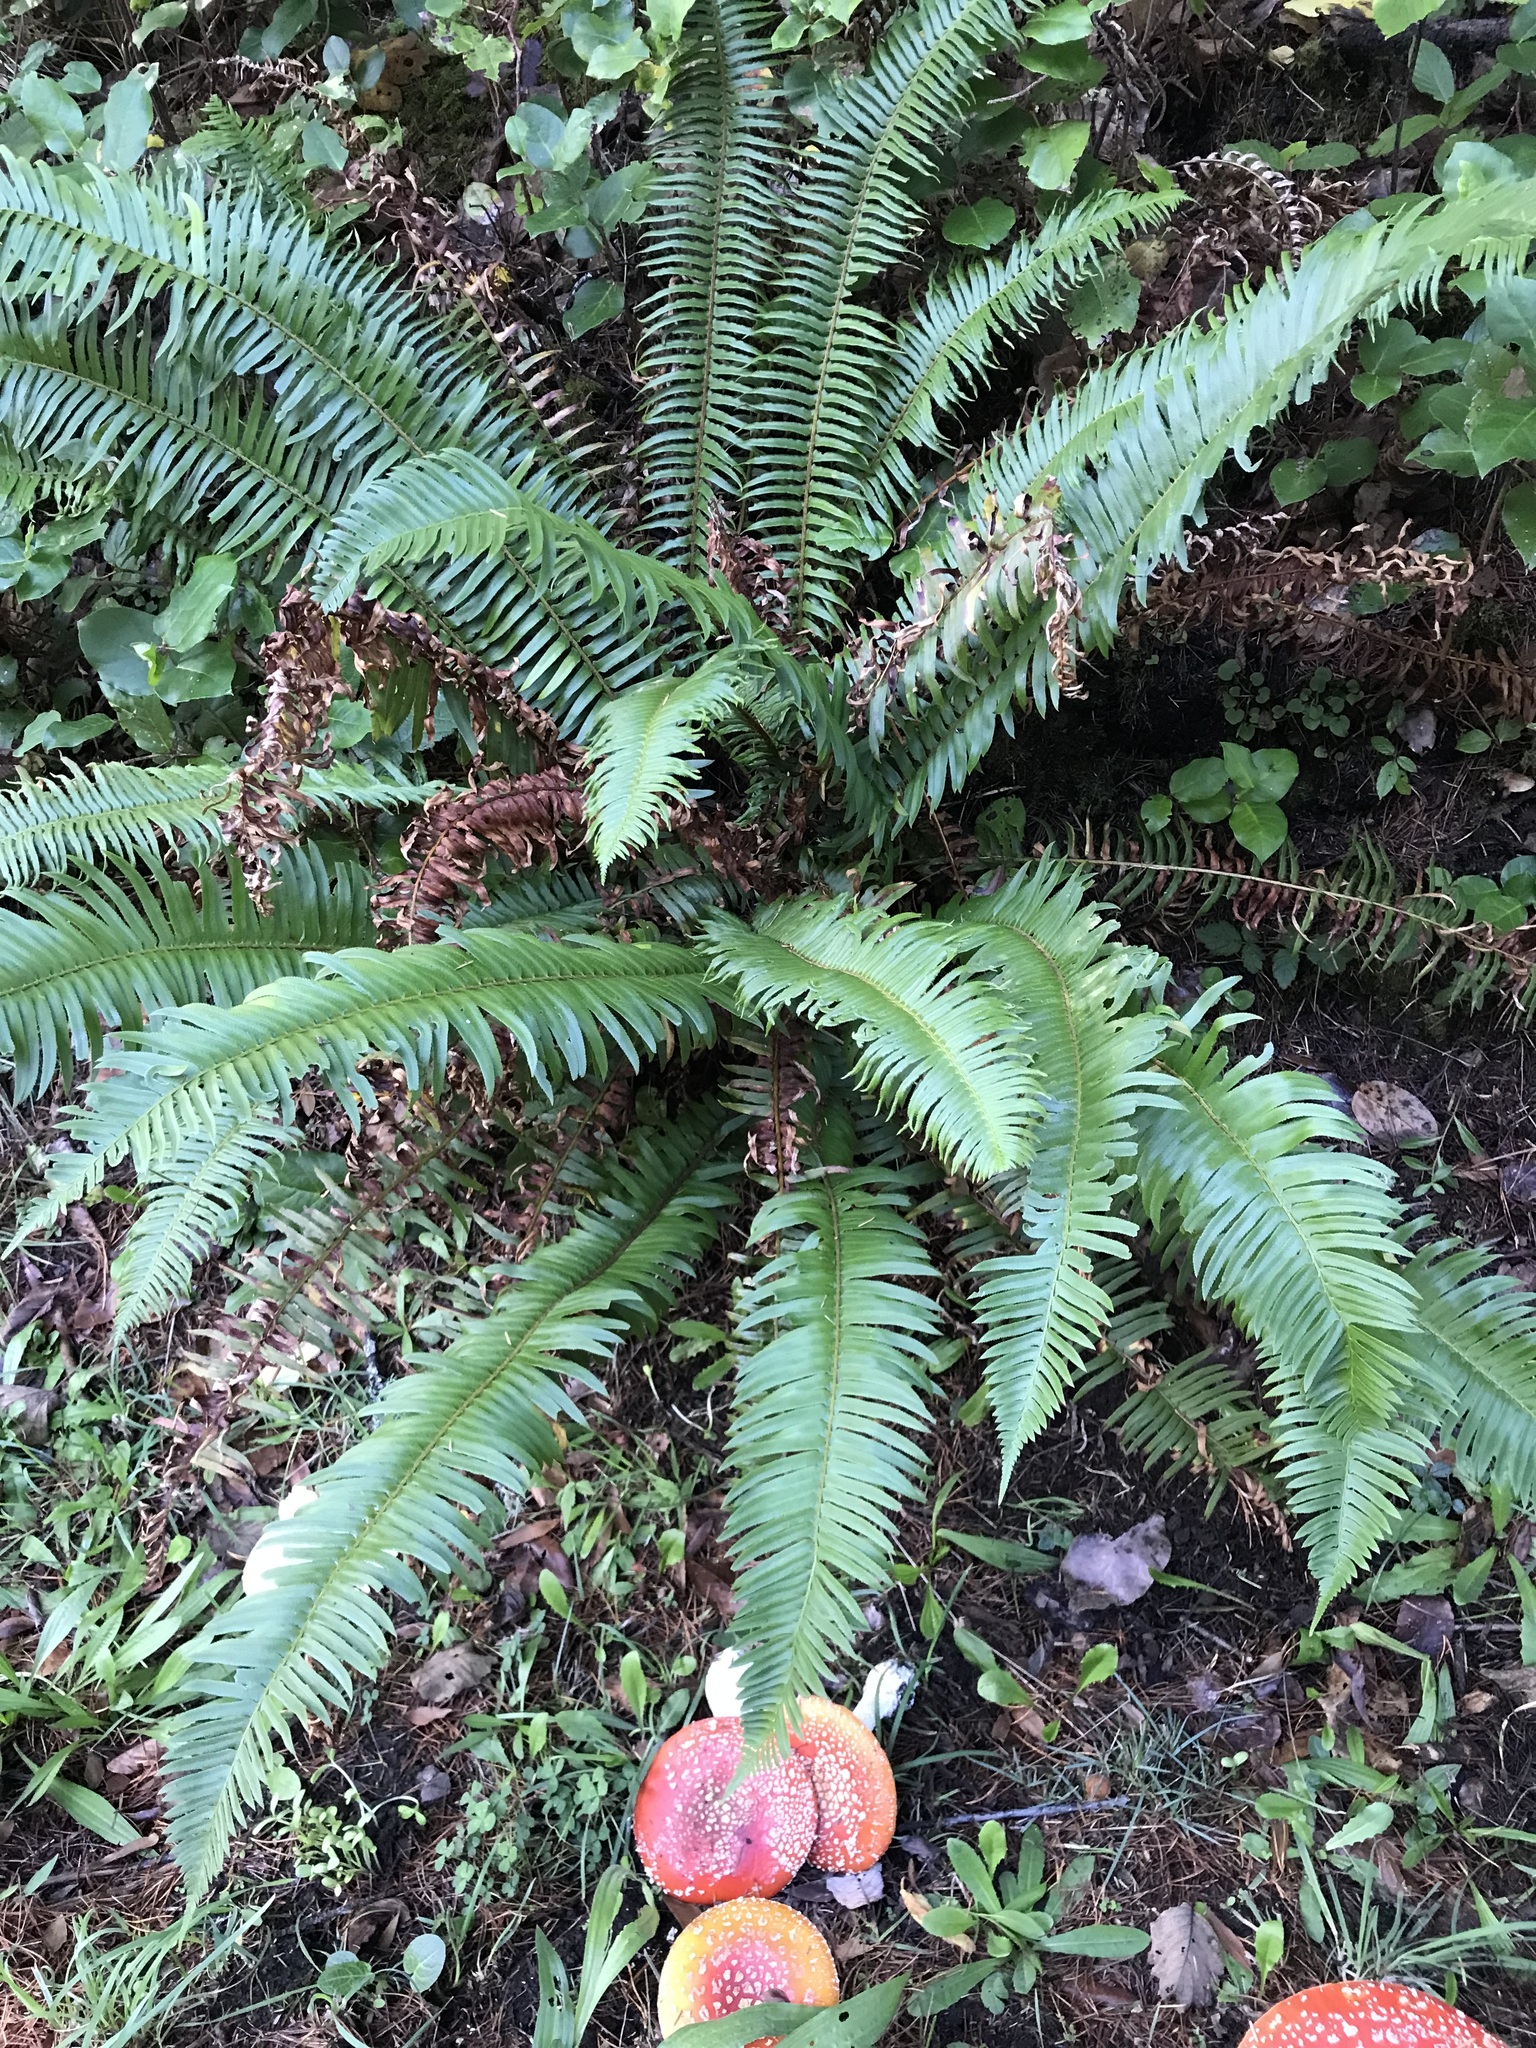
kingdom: Plantae
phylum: Tracheophyta
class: Polypodiopsida
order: Polypodiales
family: Dryopteridaceae
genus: Polystichum
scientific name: Polystichum munitum
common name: Western sword-fern
